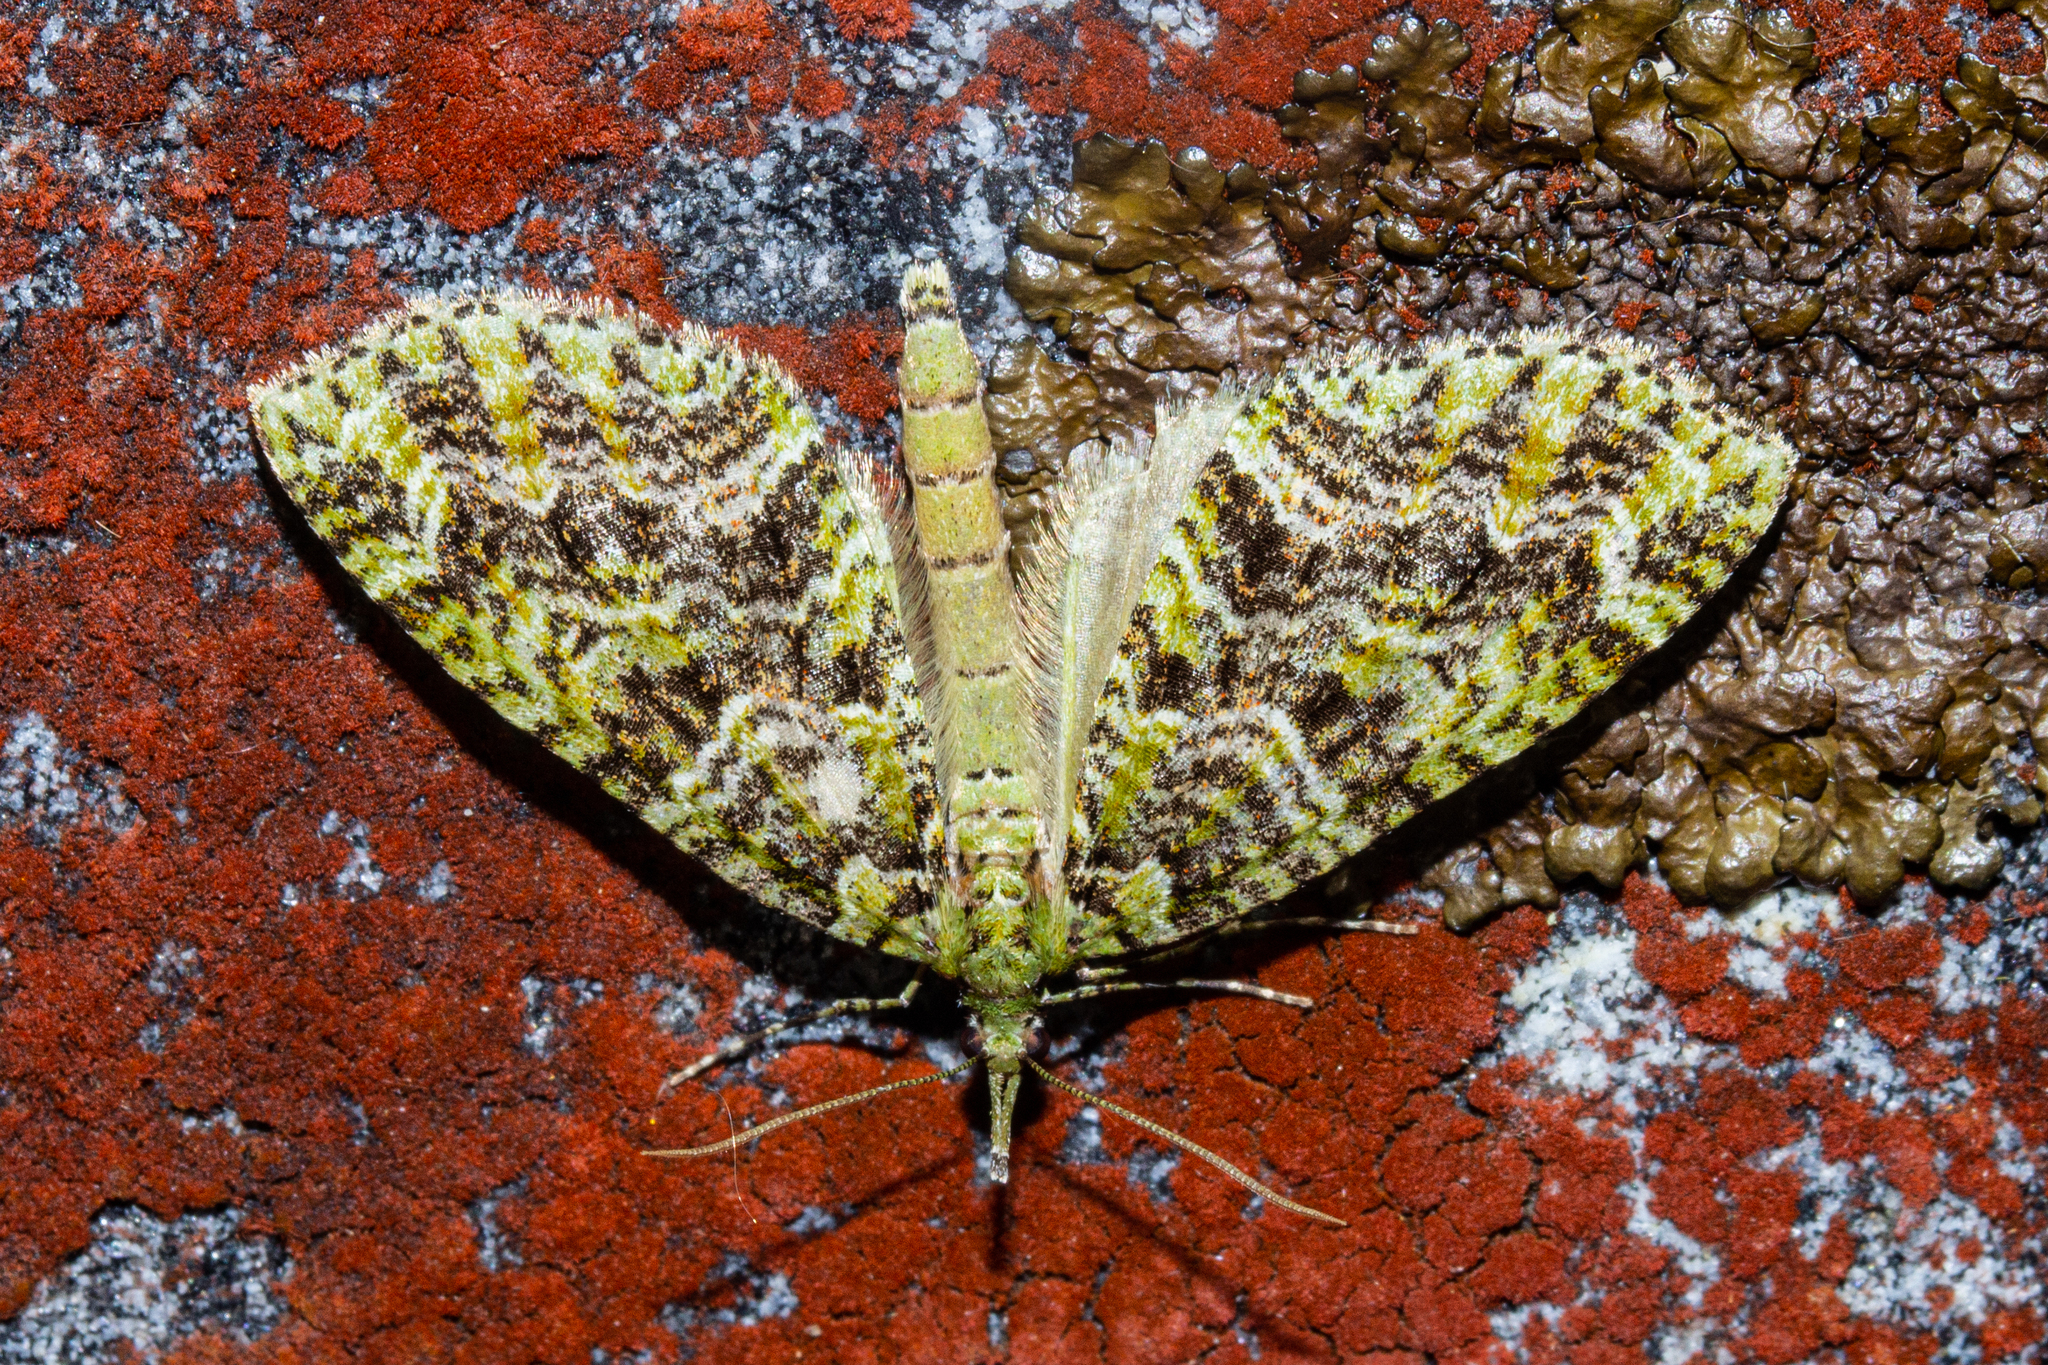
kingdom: Animalia
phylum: Arthropoda
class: Insecta
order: Lepidoptera
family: Geometridae
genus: Tatosoma
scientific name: Tatosoma tipulata
